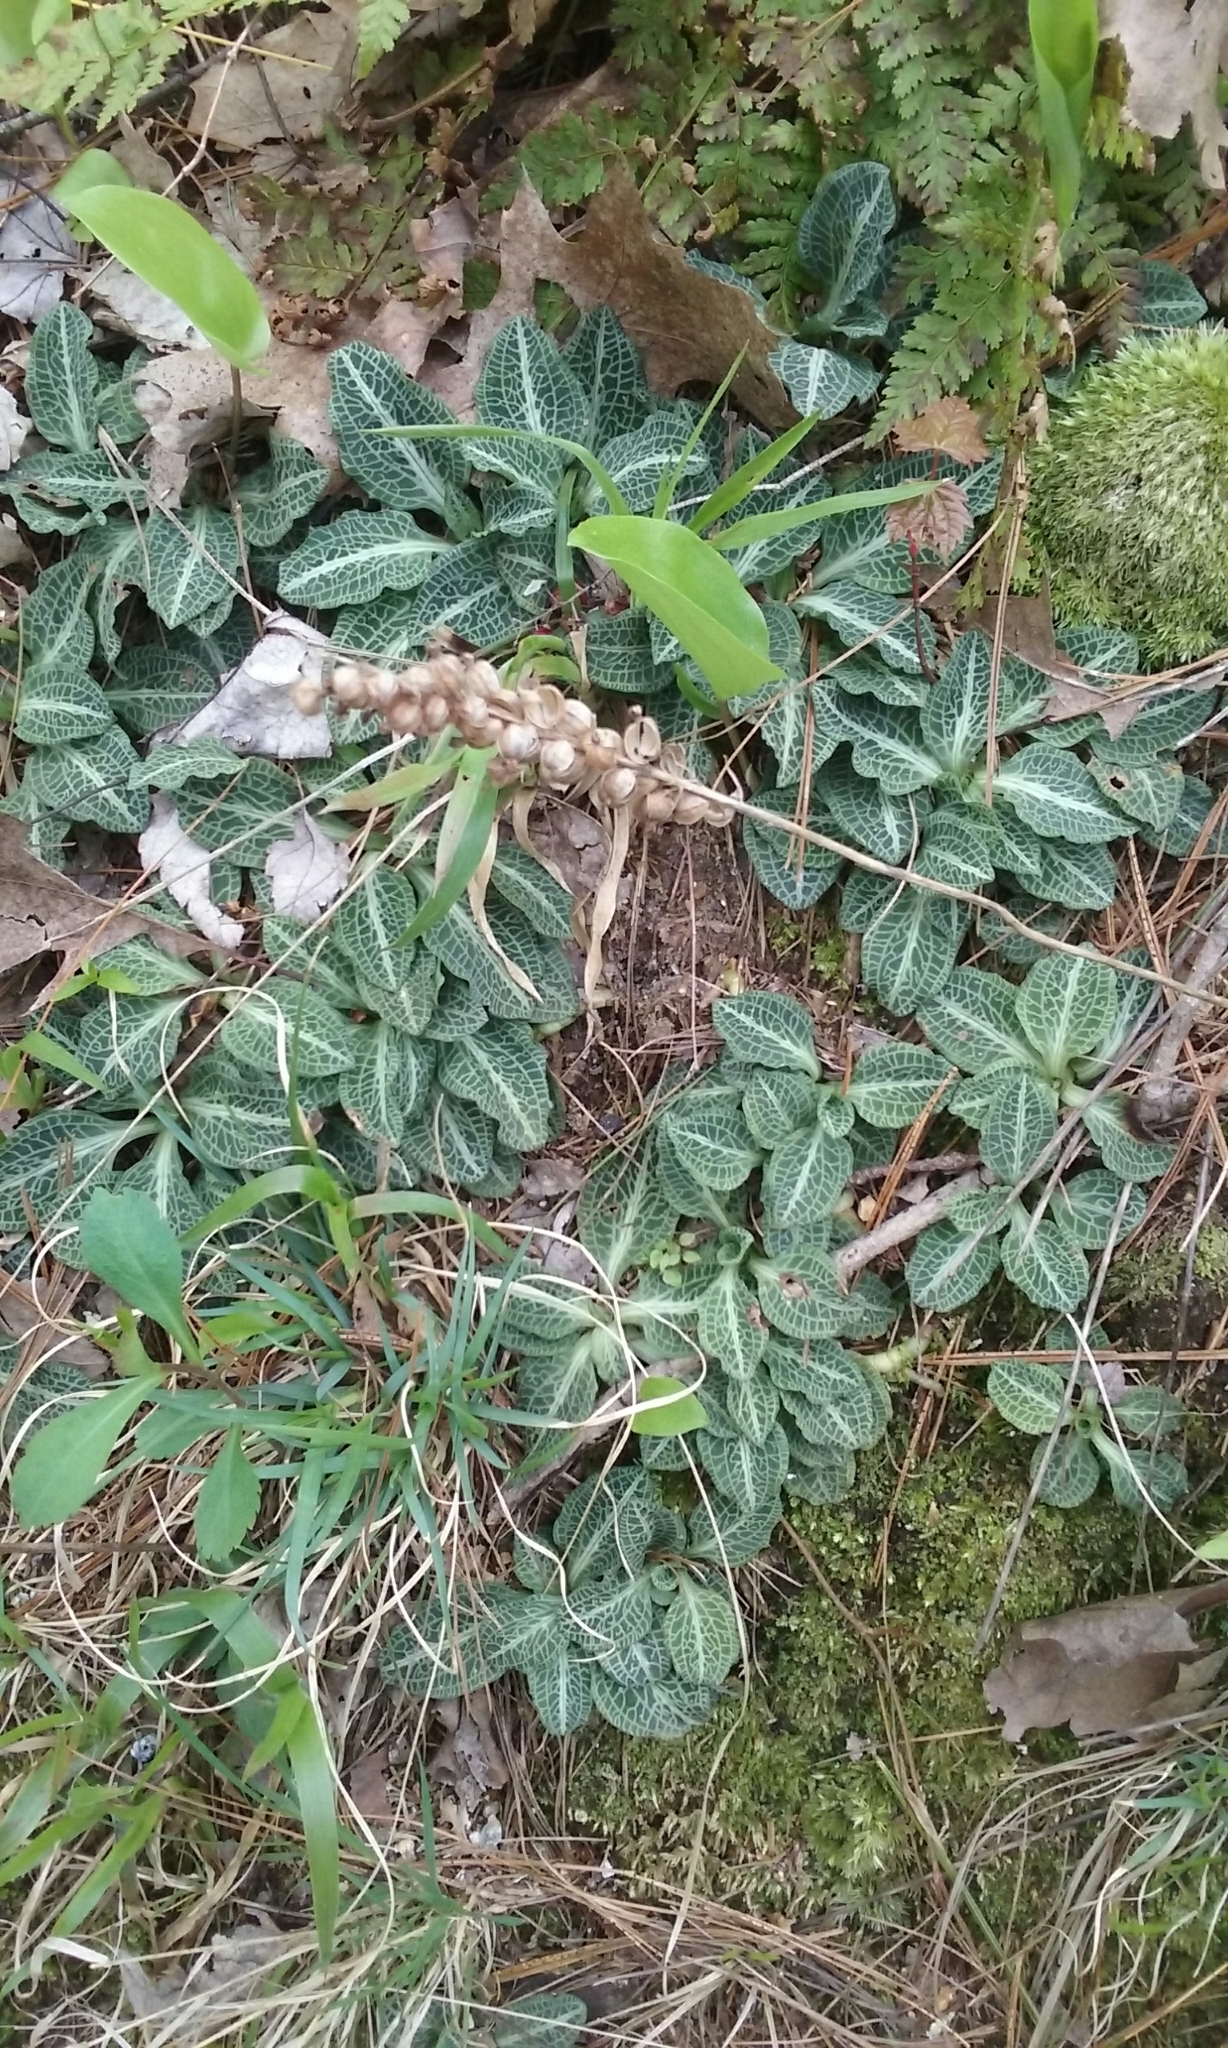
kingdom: Plantae
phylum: Tracheophyta
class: Liliopsida
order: Asparagales
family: Orchidaceae
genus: Goodyera
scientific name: Goodyera pubescens
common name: Downy rattlesnake-plantain
